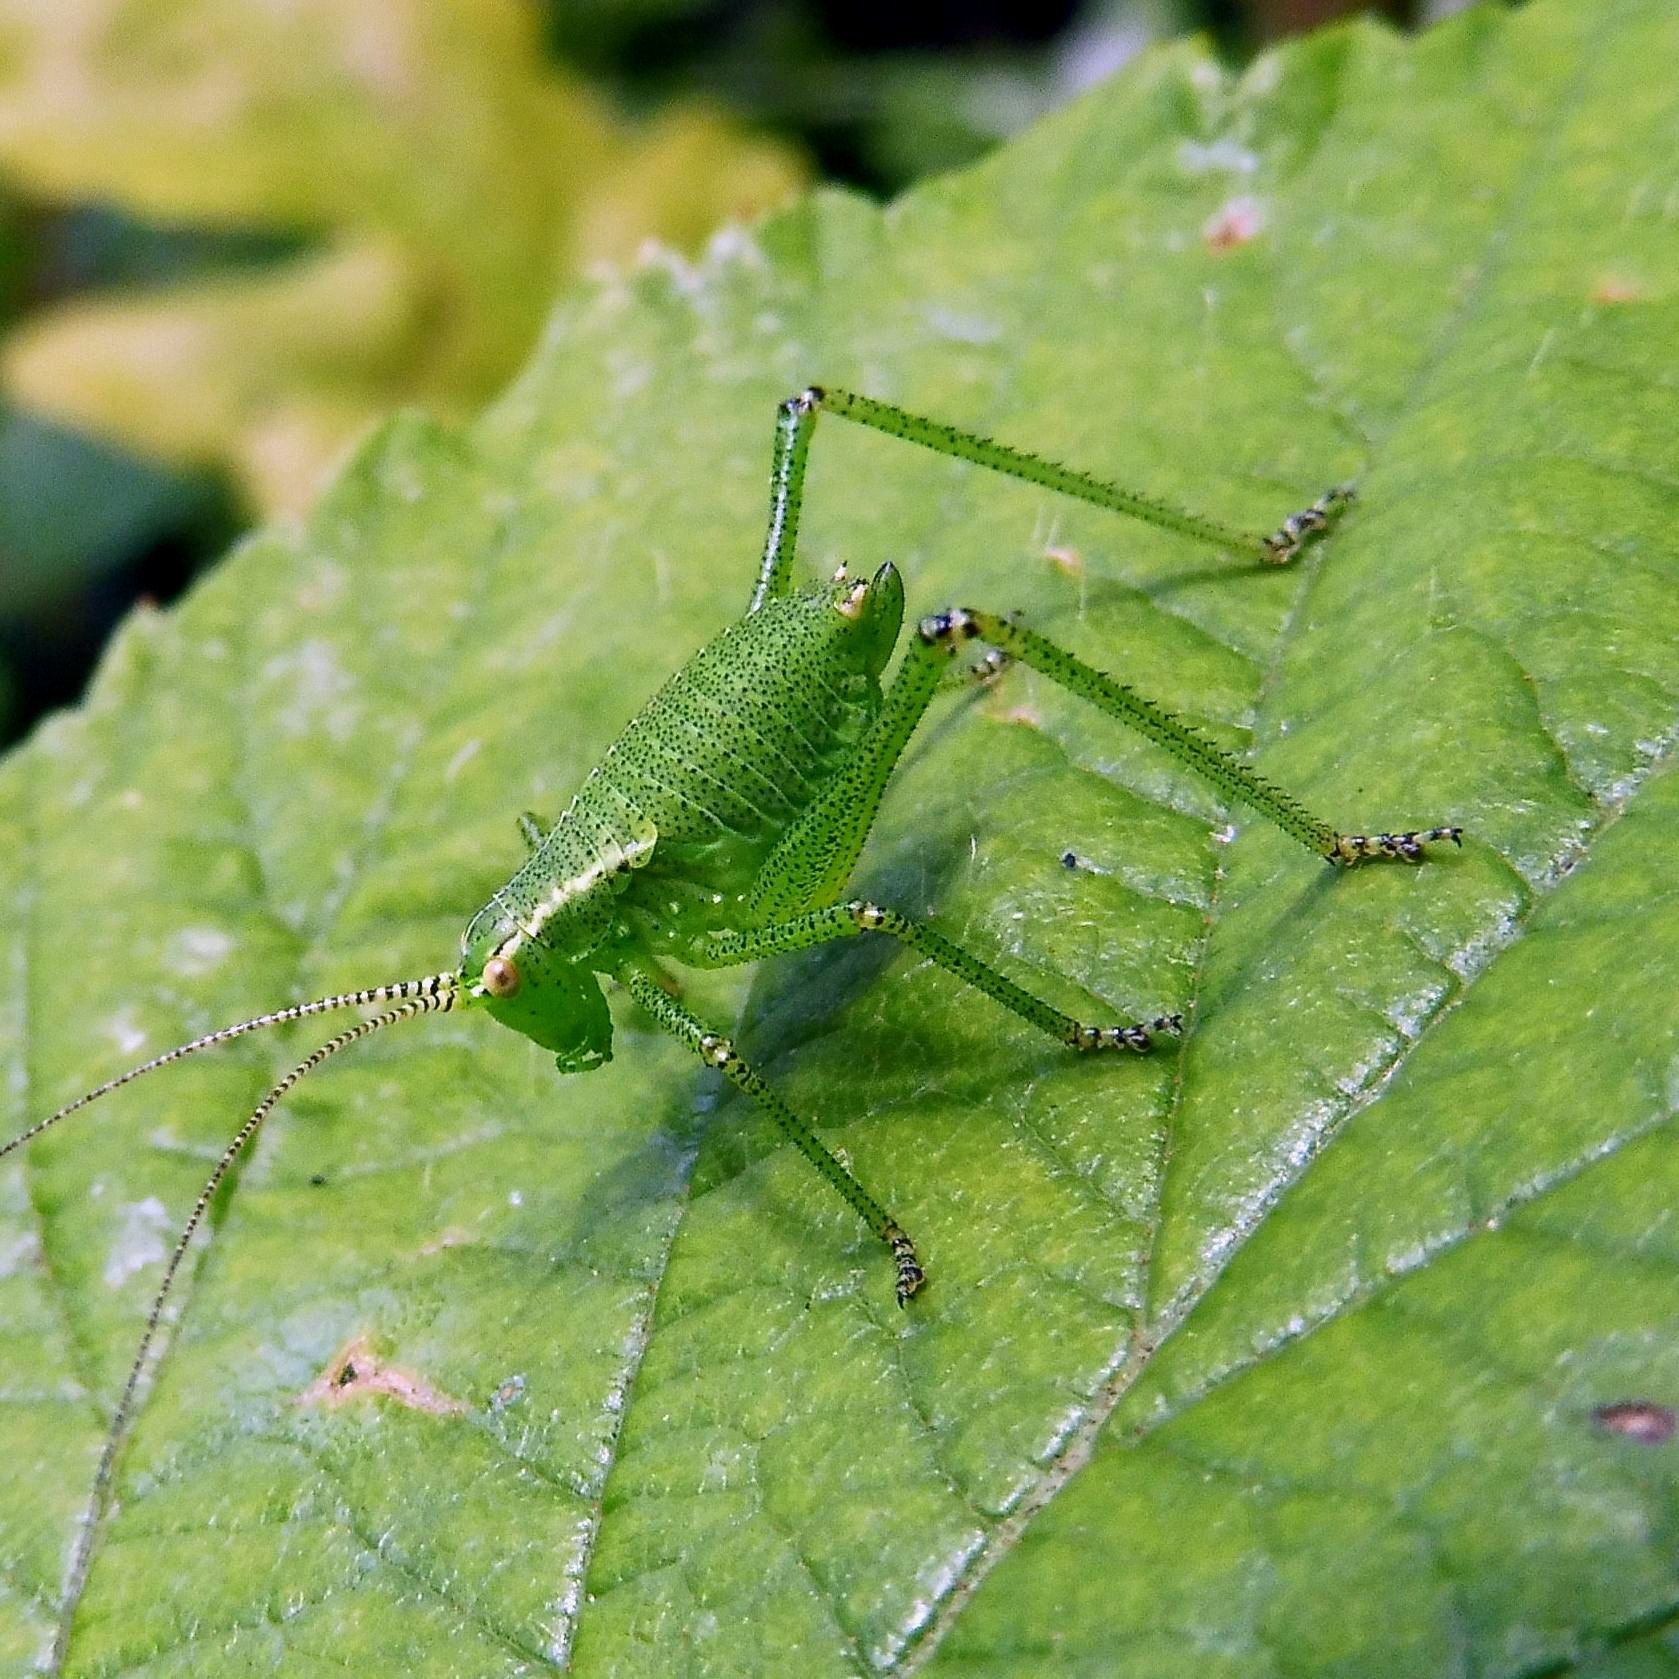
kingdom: Animalia
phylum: Arthropoda
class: Insecta
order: Orthoptera
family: Tettigoniidae
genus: Leptophyes
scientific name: Leptophyes punctatissima
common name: Speckled bush-cricket
